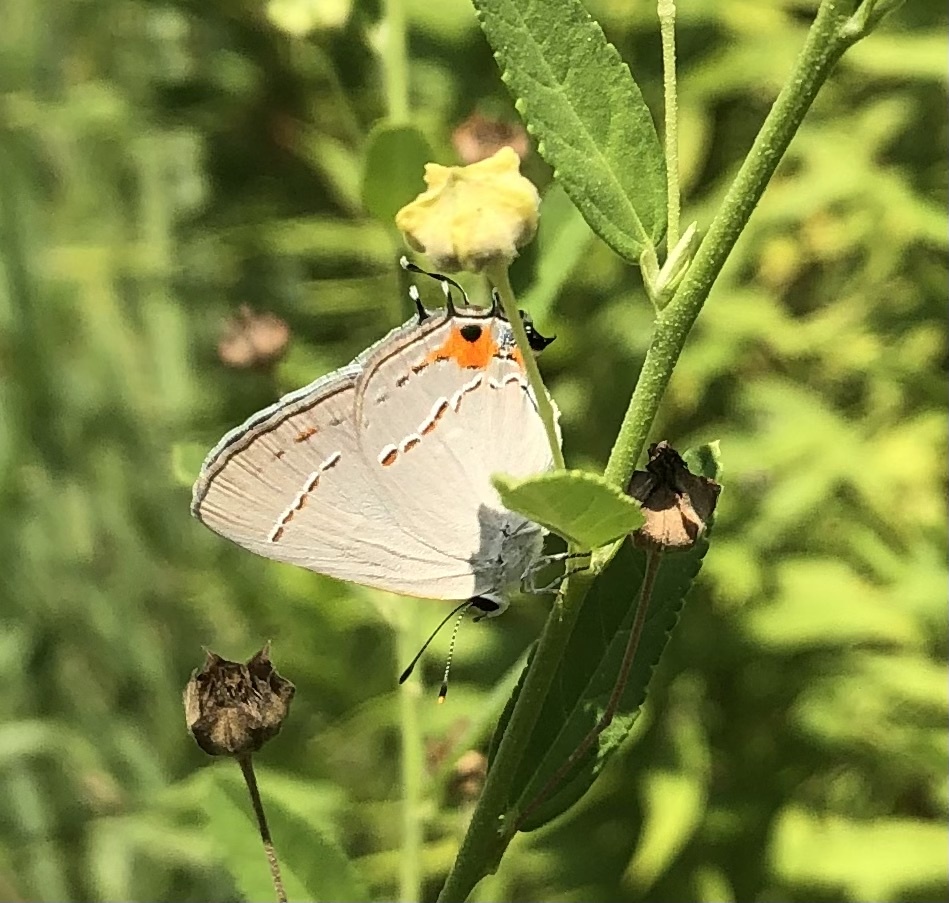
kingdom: Animalia
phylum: Arthropoda
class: Insecta
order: Lepidoptera
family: Lycaenidae
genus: Strymon
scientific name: Strymon melinus
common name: Gray hairstreak
